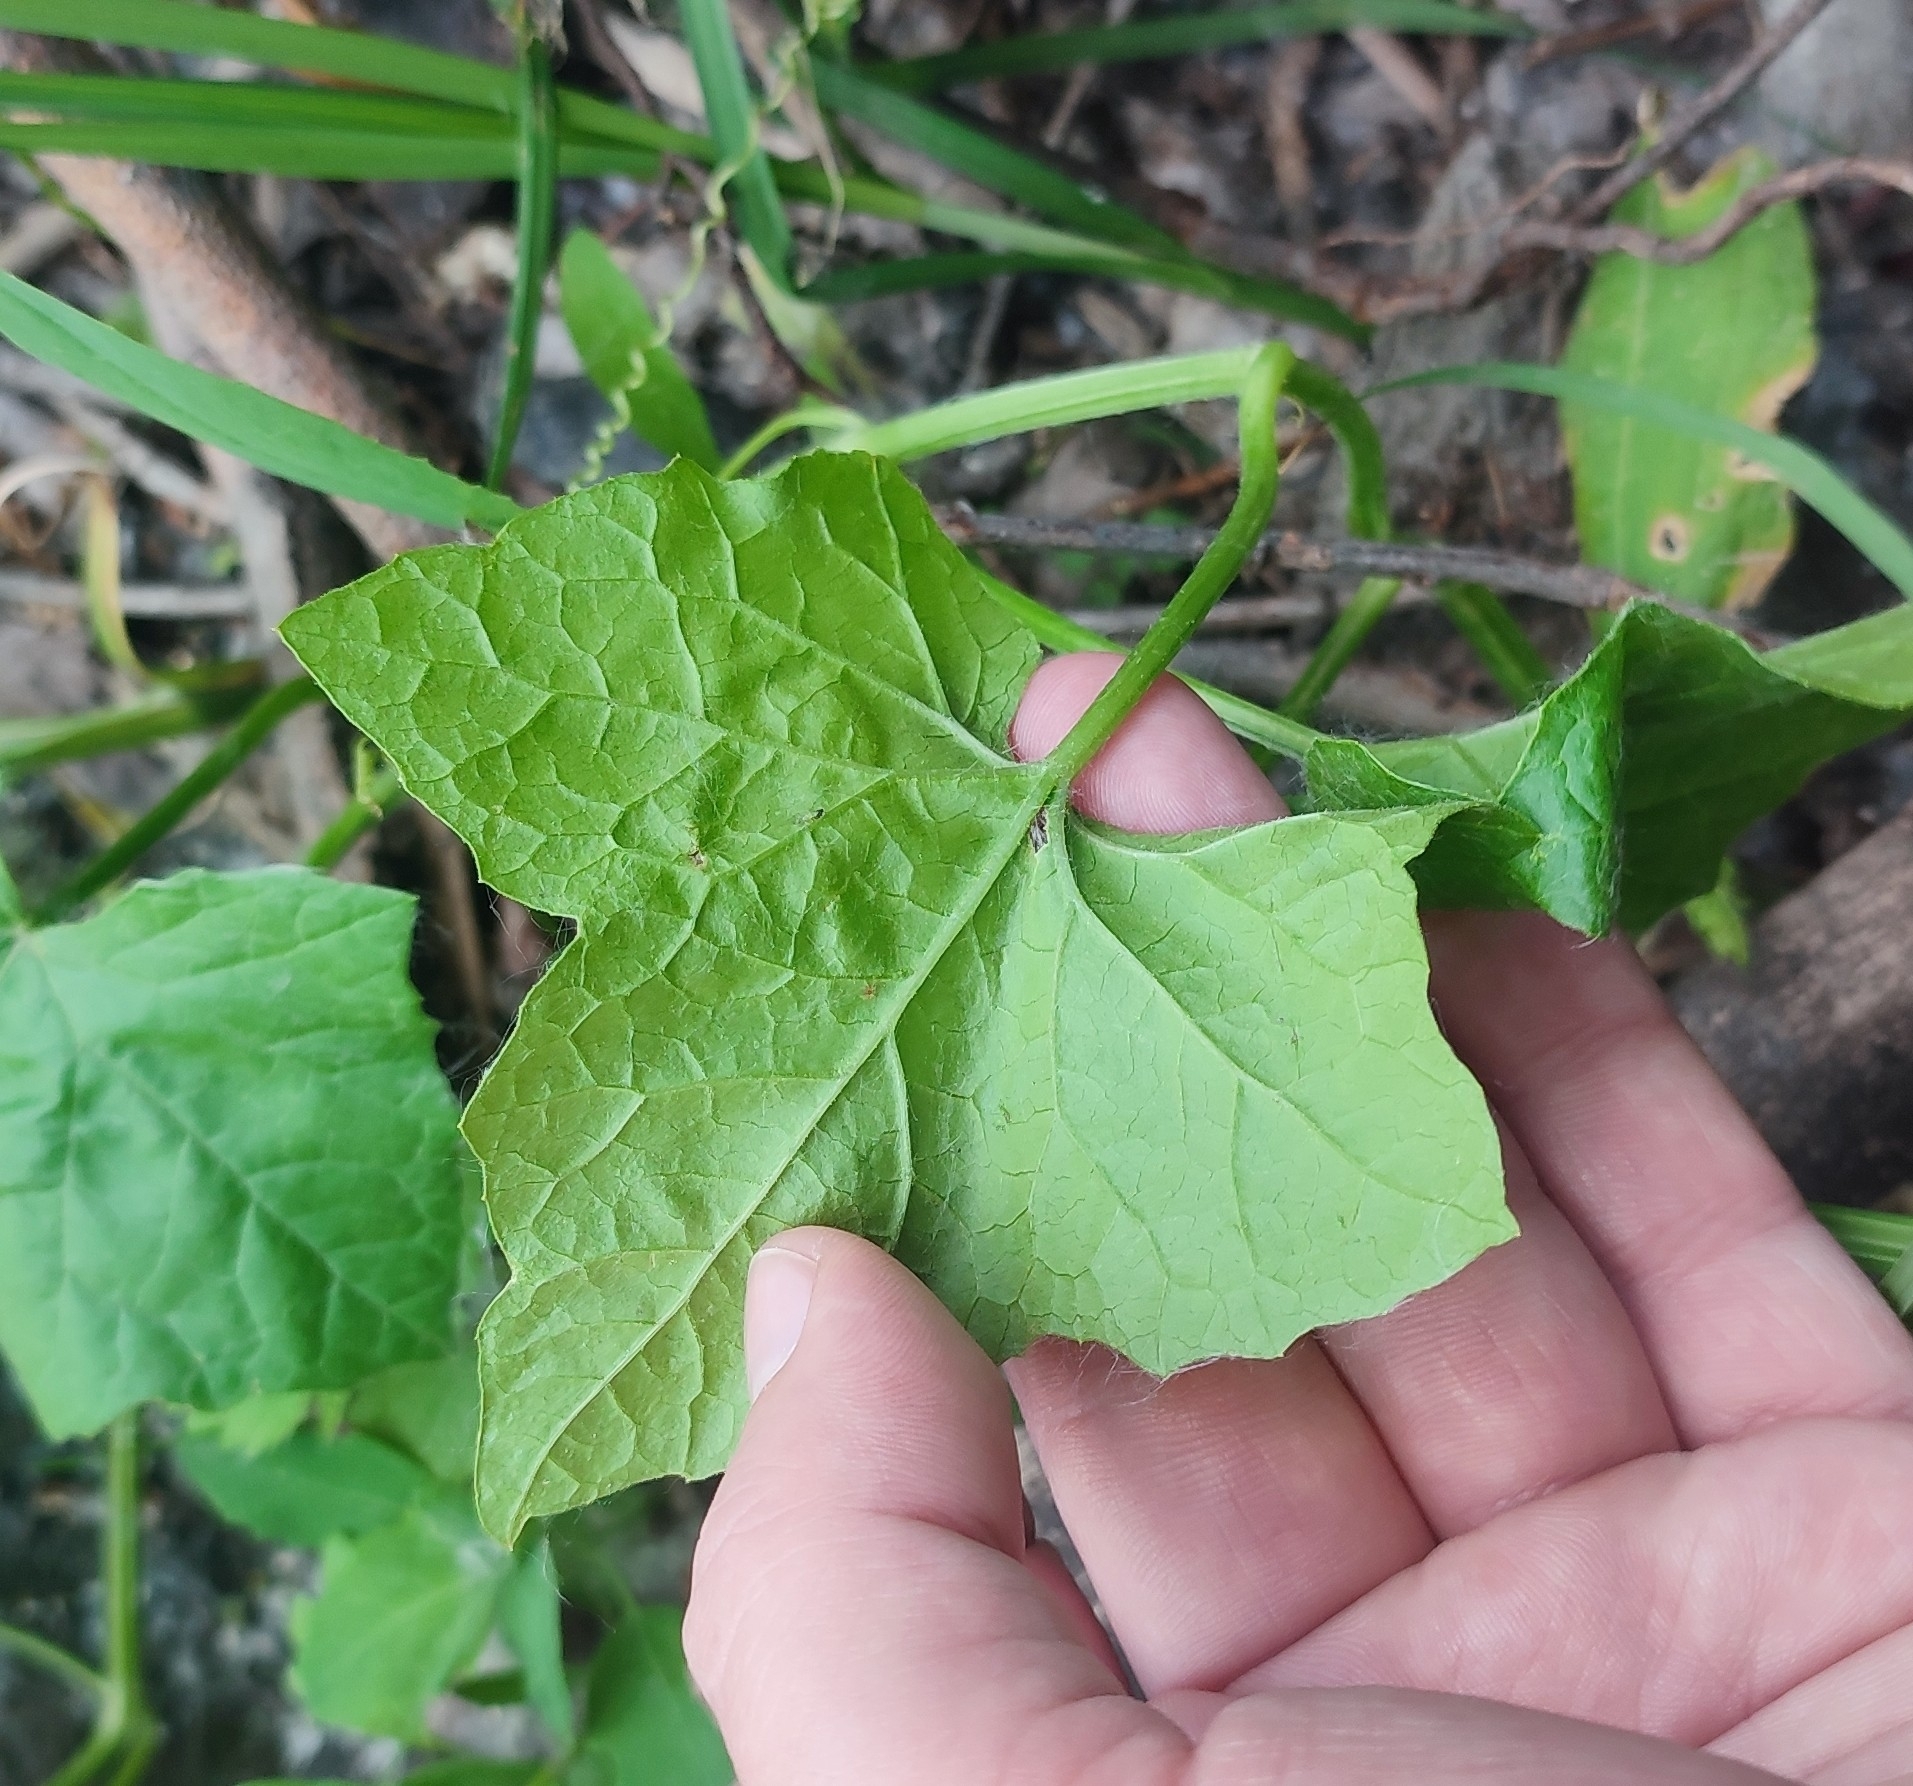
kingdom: Plantae
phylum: Tracheophyta
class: Magnoliopsida
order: Cucurbitales
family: Cucurbitaceae
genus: Echinocystis
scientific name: Echinocystis lobata
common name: Wild cucumber
